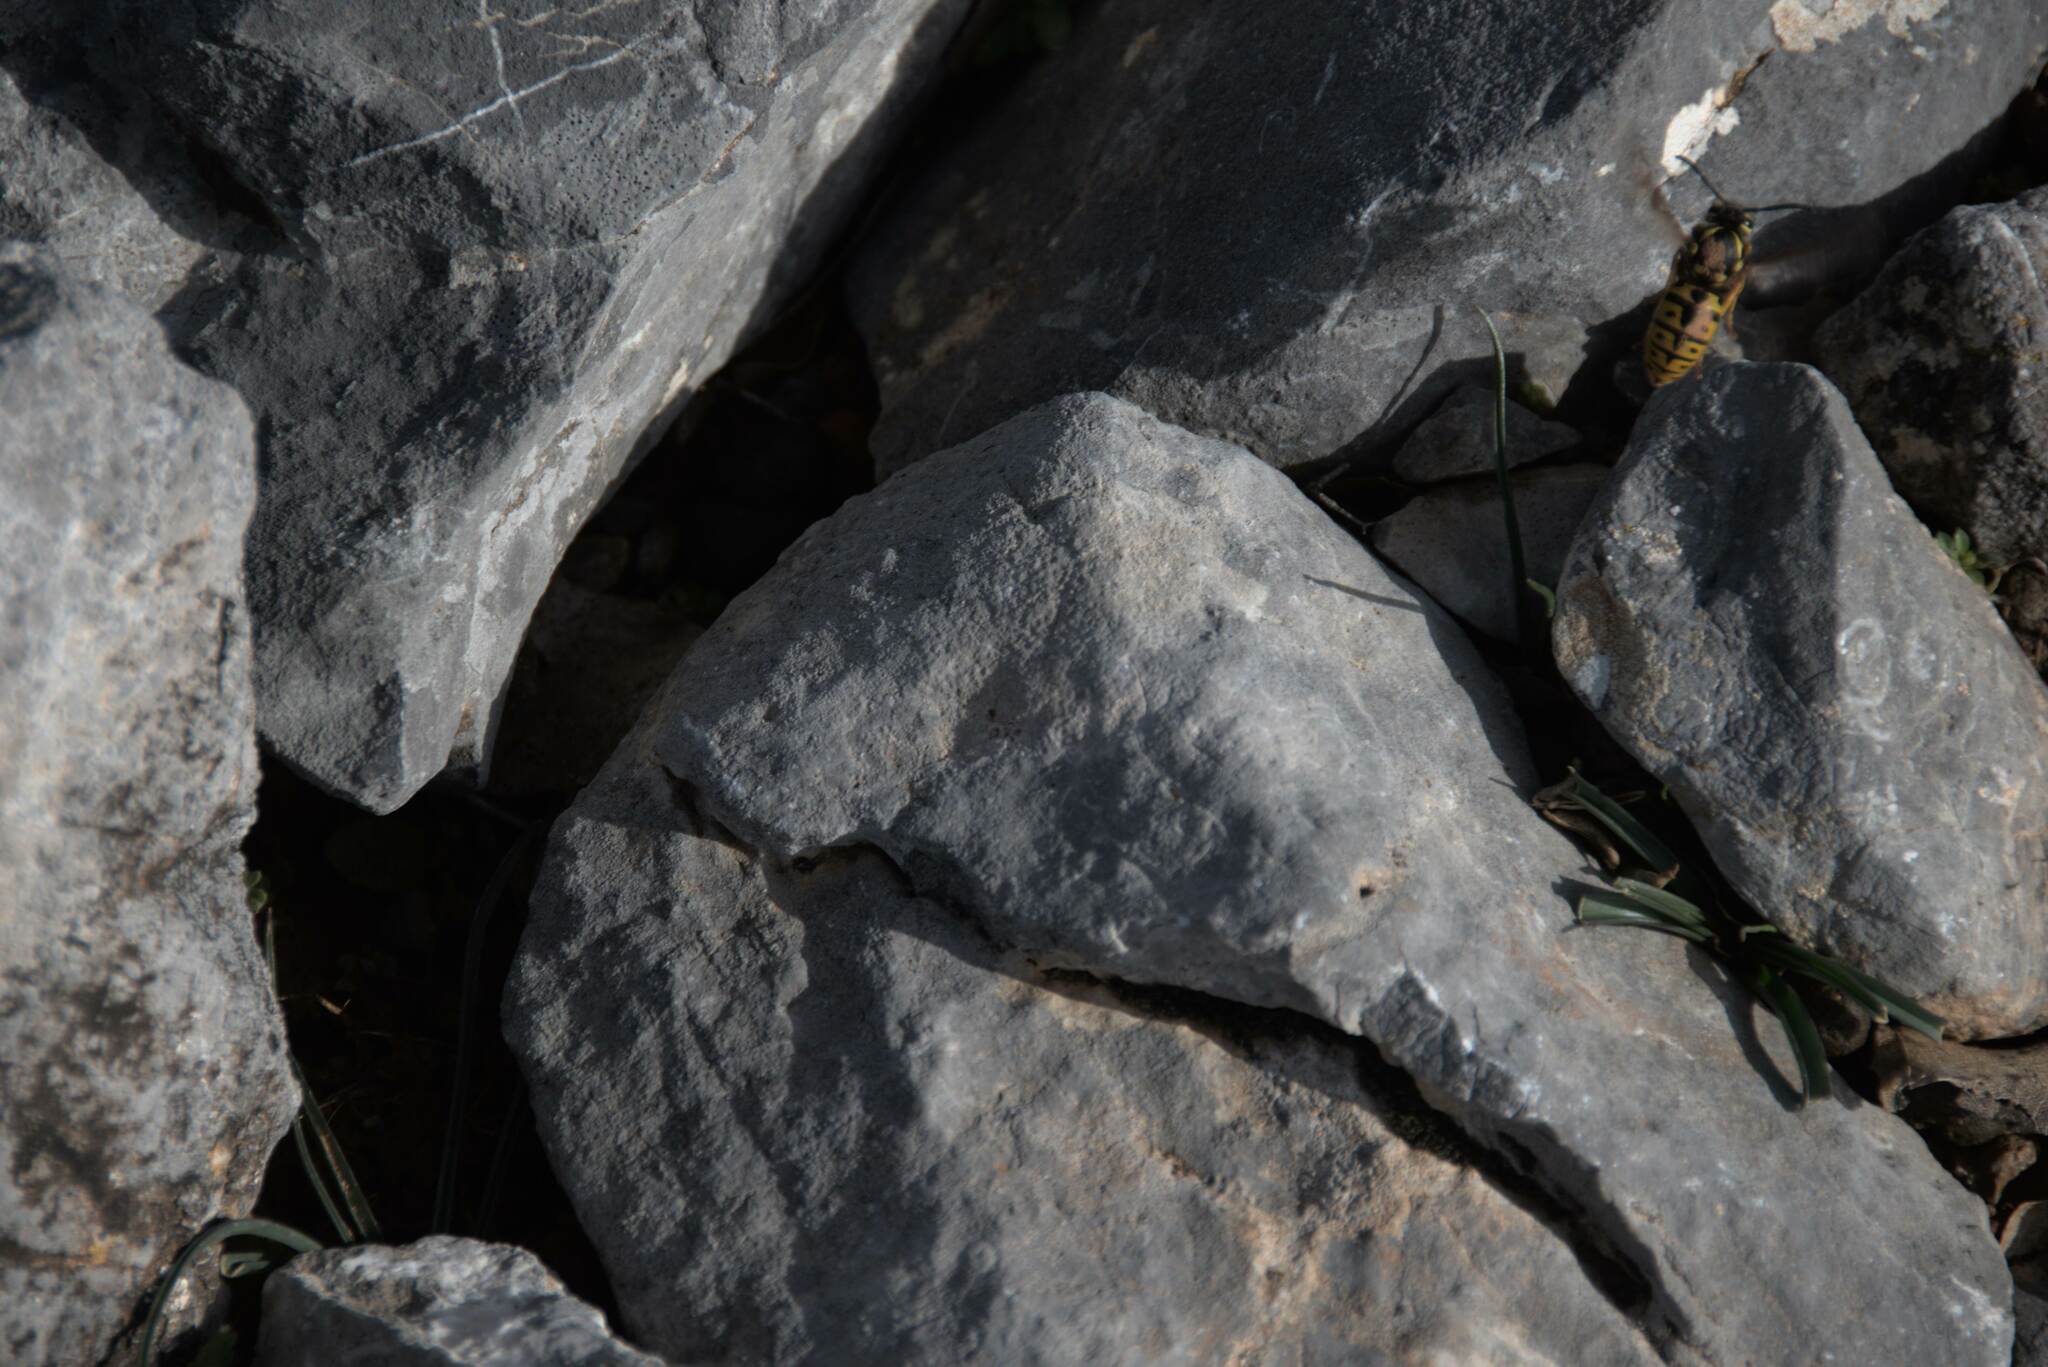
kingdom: Animalia
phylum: Arthropoda
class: Insecta
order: Hymenoptera
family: Vespidae
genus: Vespula
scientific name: Vespula germanica
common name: German wasp
